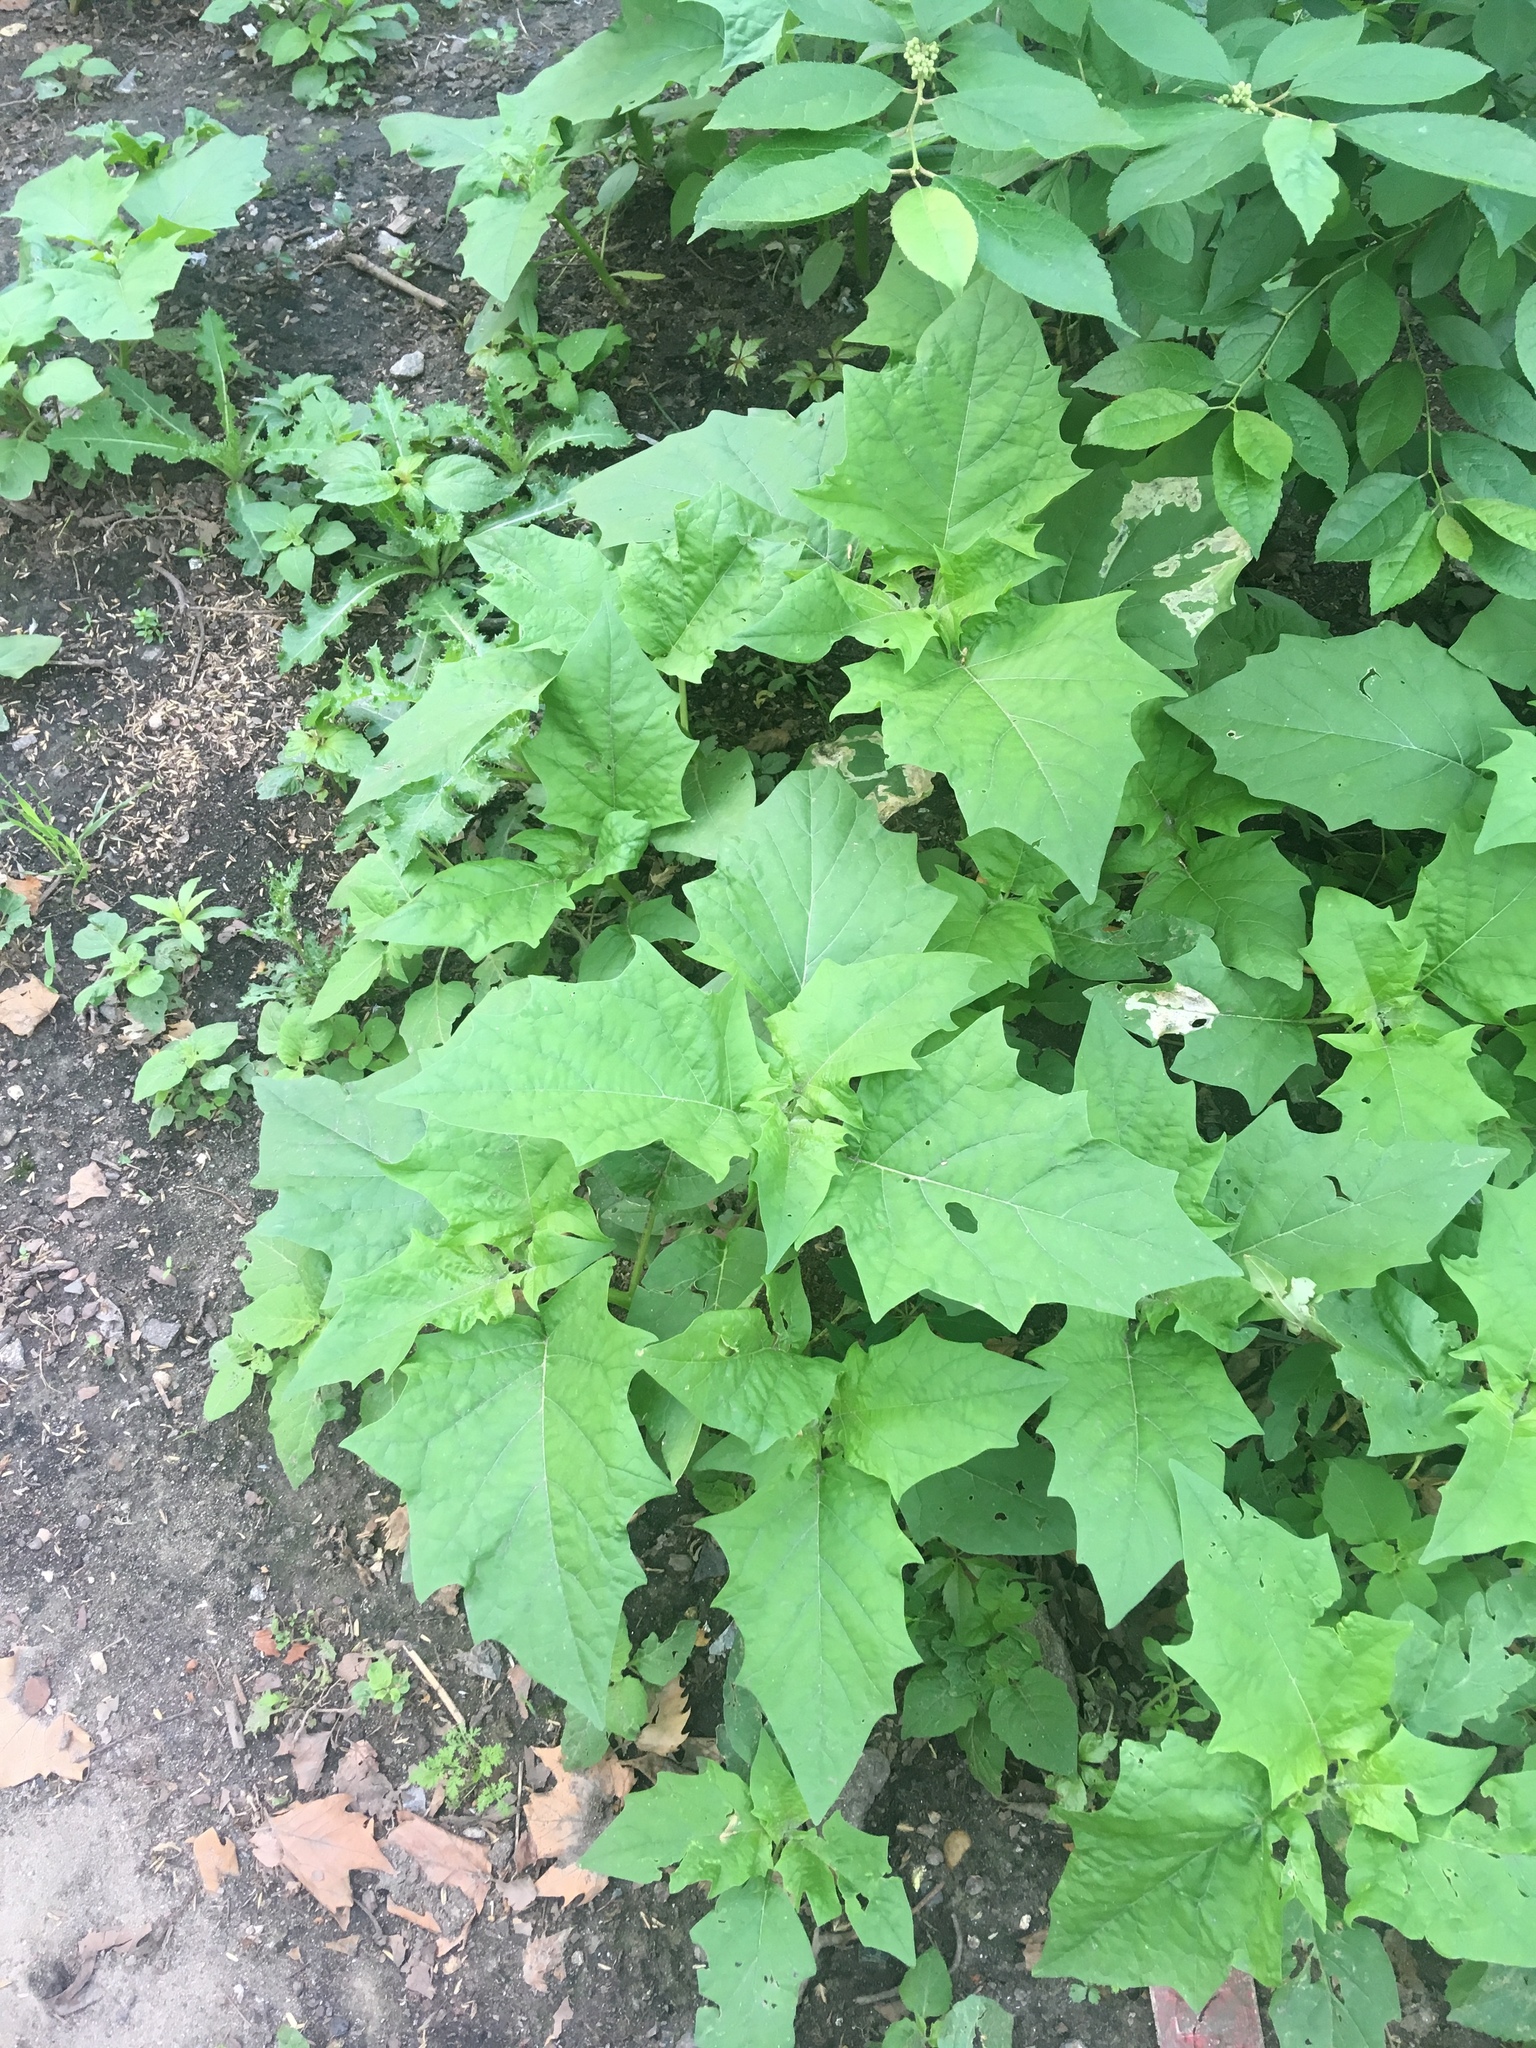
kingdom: Plantae
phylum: Tracheophyta
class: Magnoliopsida
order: Solanales
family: Solanaceae
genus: Datura
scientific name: Datura stramonium
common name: Thorn-apple
